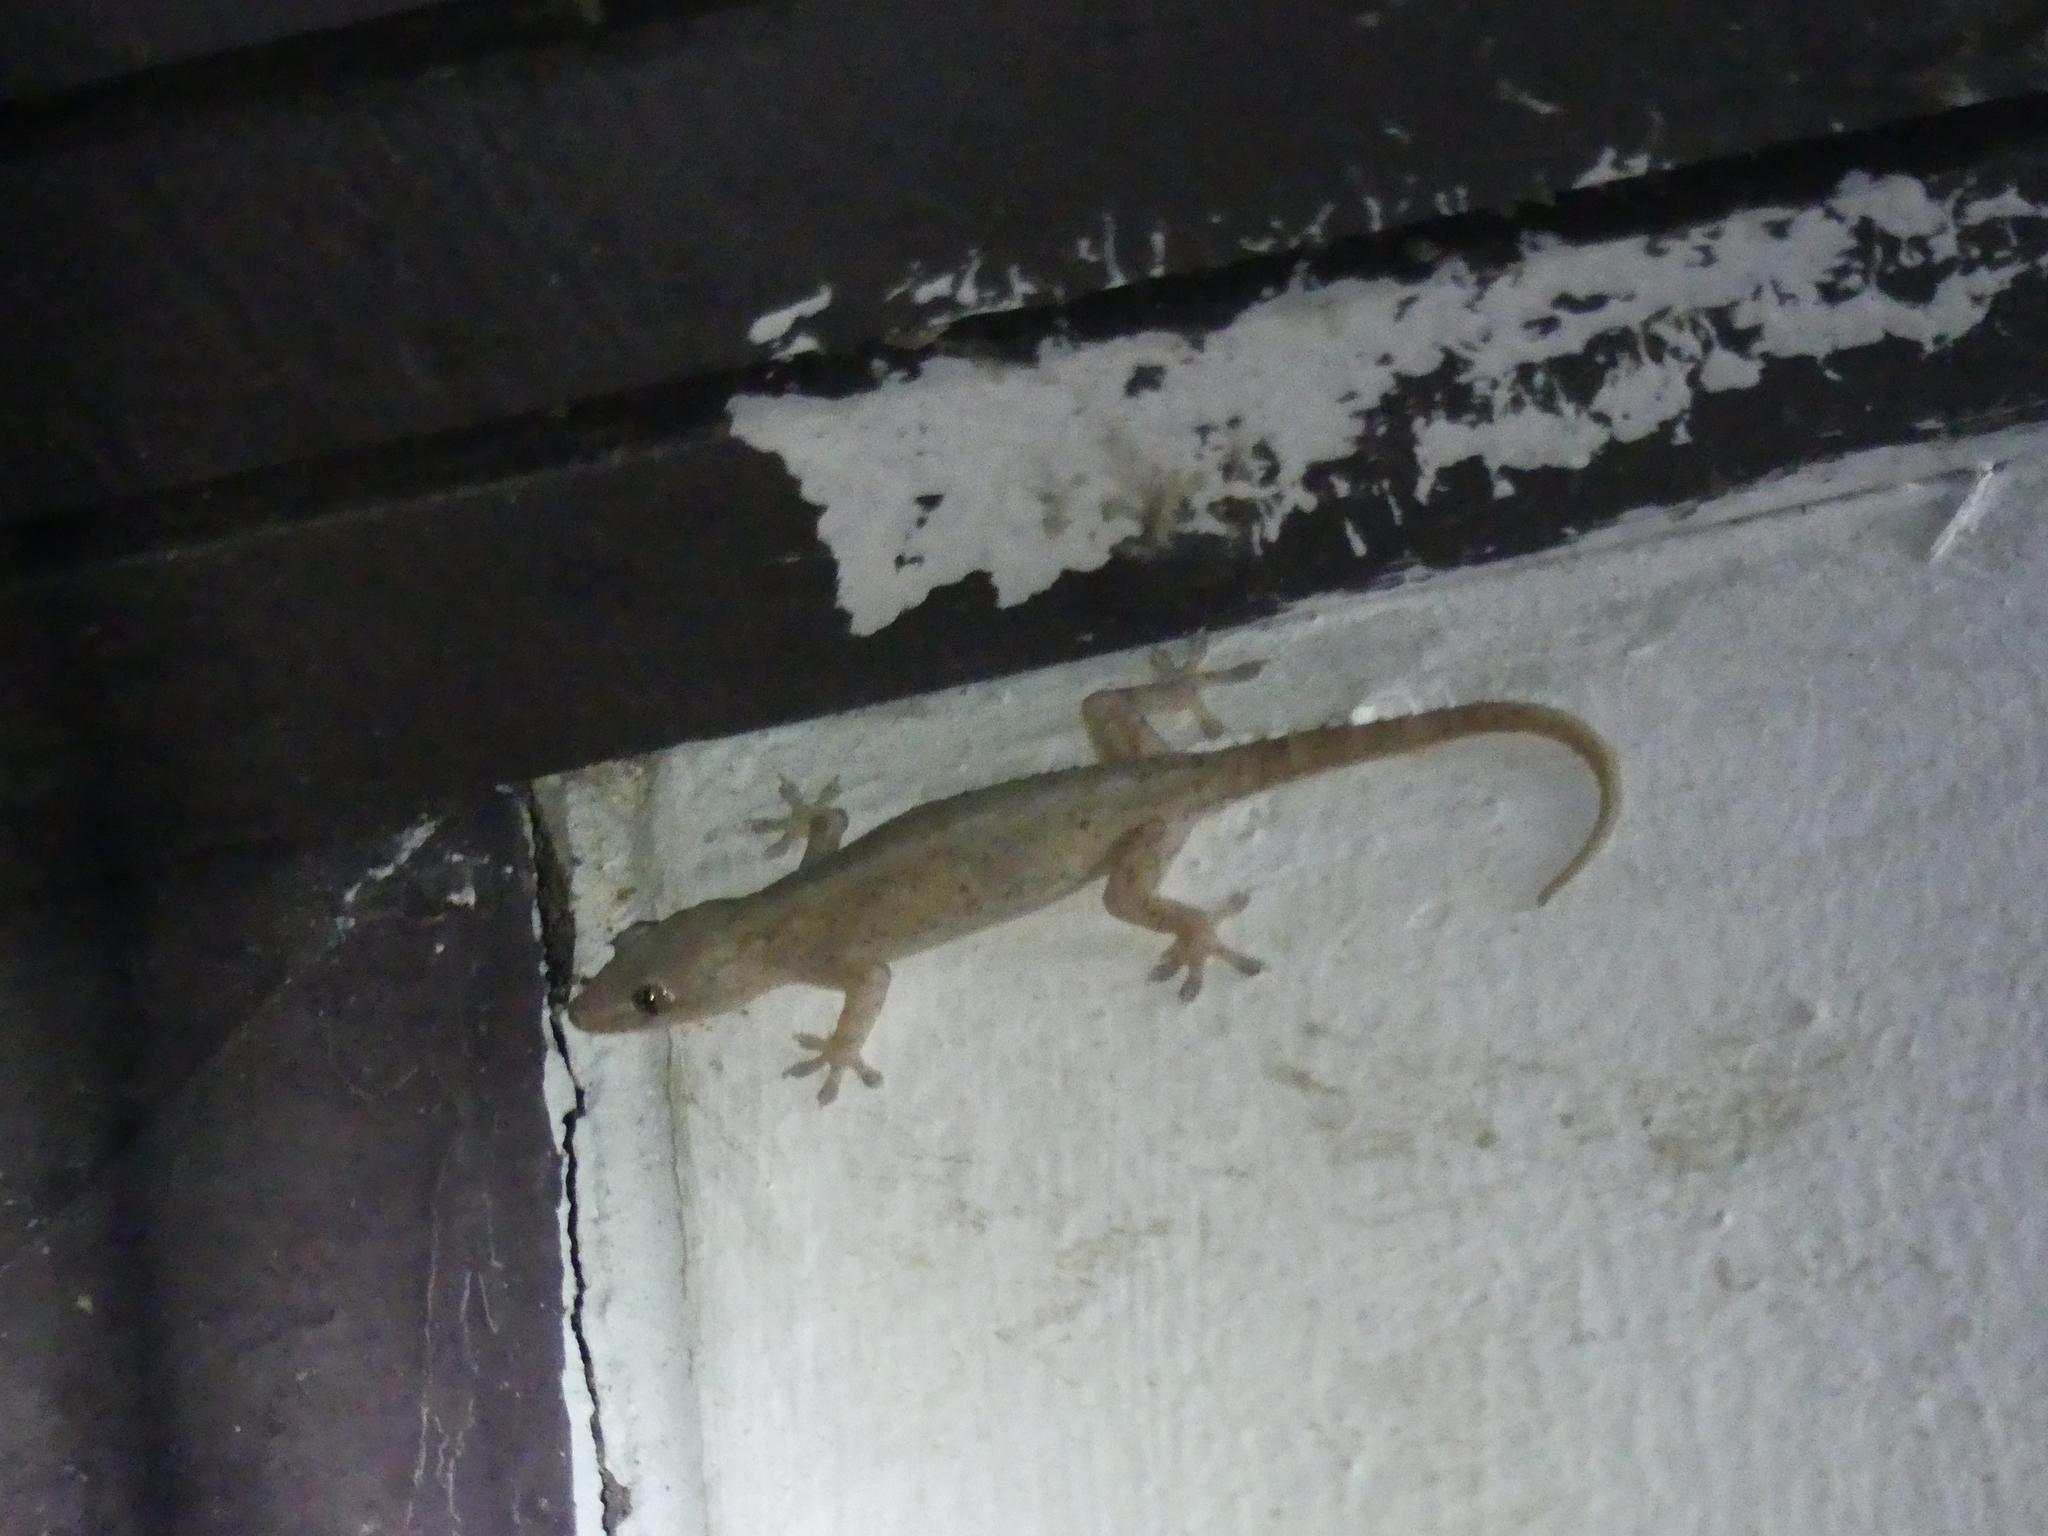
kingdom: Animalia
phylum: Chordata
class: Squamata
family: Gekkonidae
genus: Hemidactylus
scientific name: Hemidactylus frenatus
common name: Common house gecko
